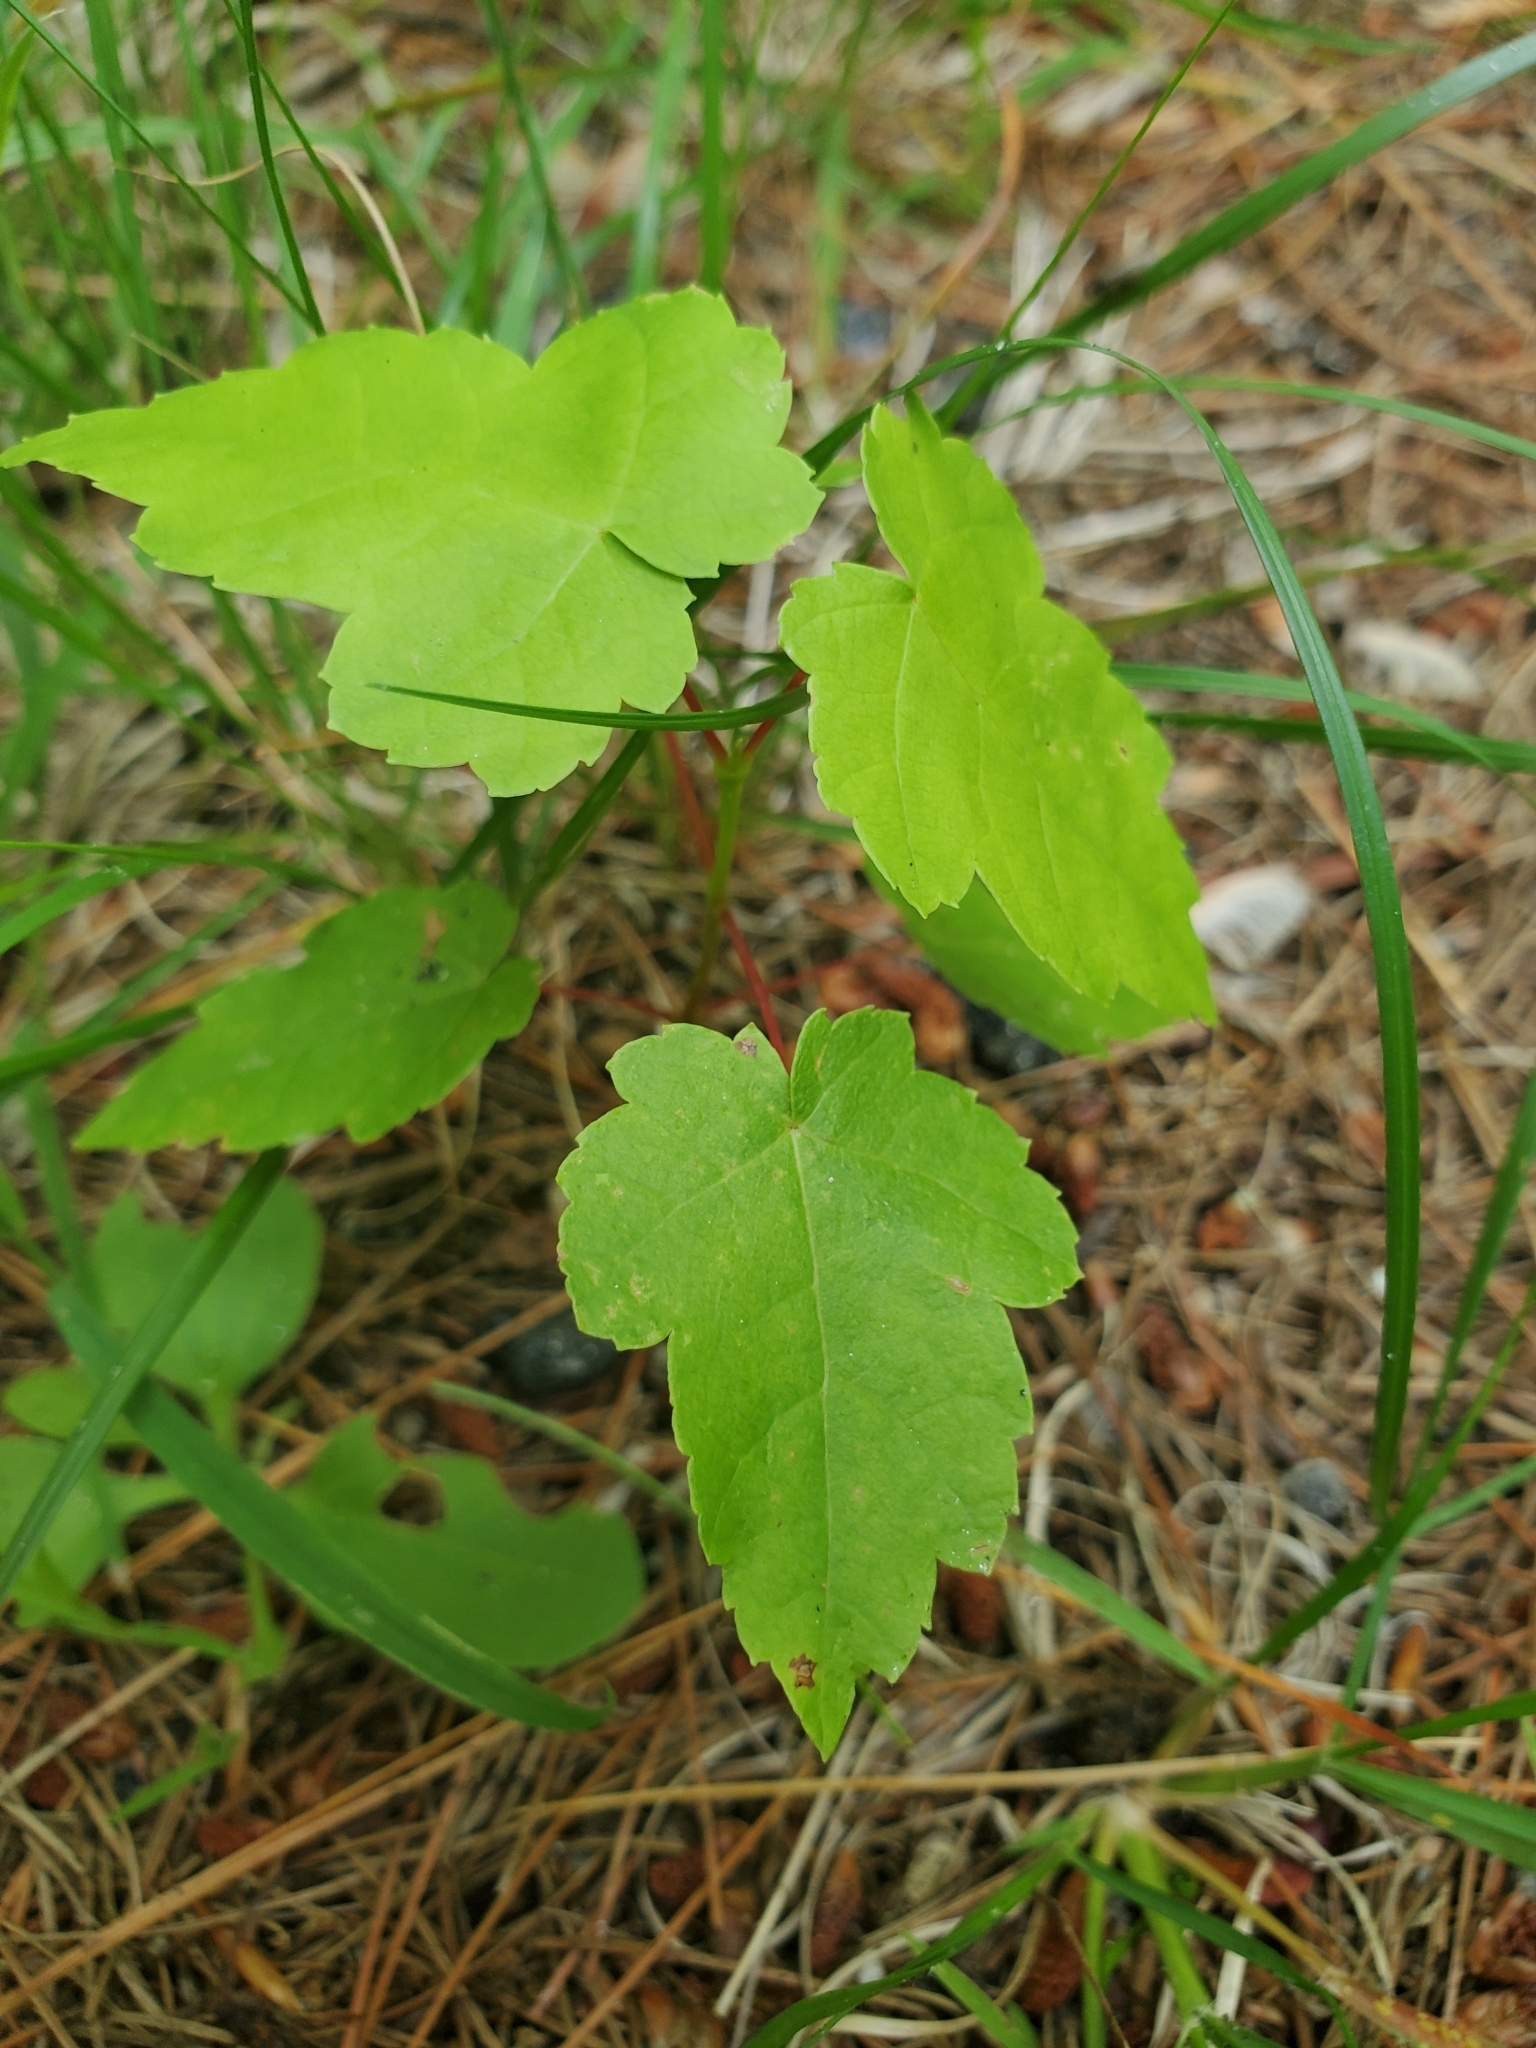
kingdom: Plantae
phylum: Tracheophyta
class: Magnoliopsida
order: Sapindales
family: Sapindaceae
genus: Acer
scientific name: Acer rubrum
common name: Red maple
